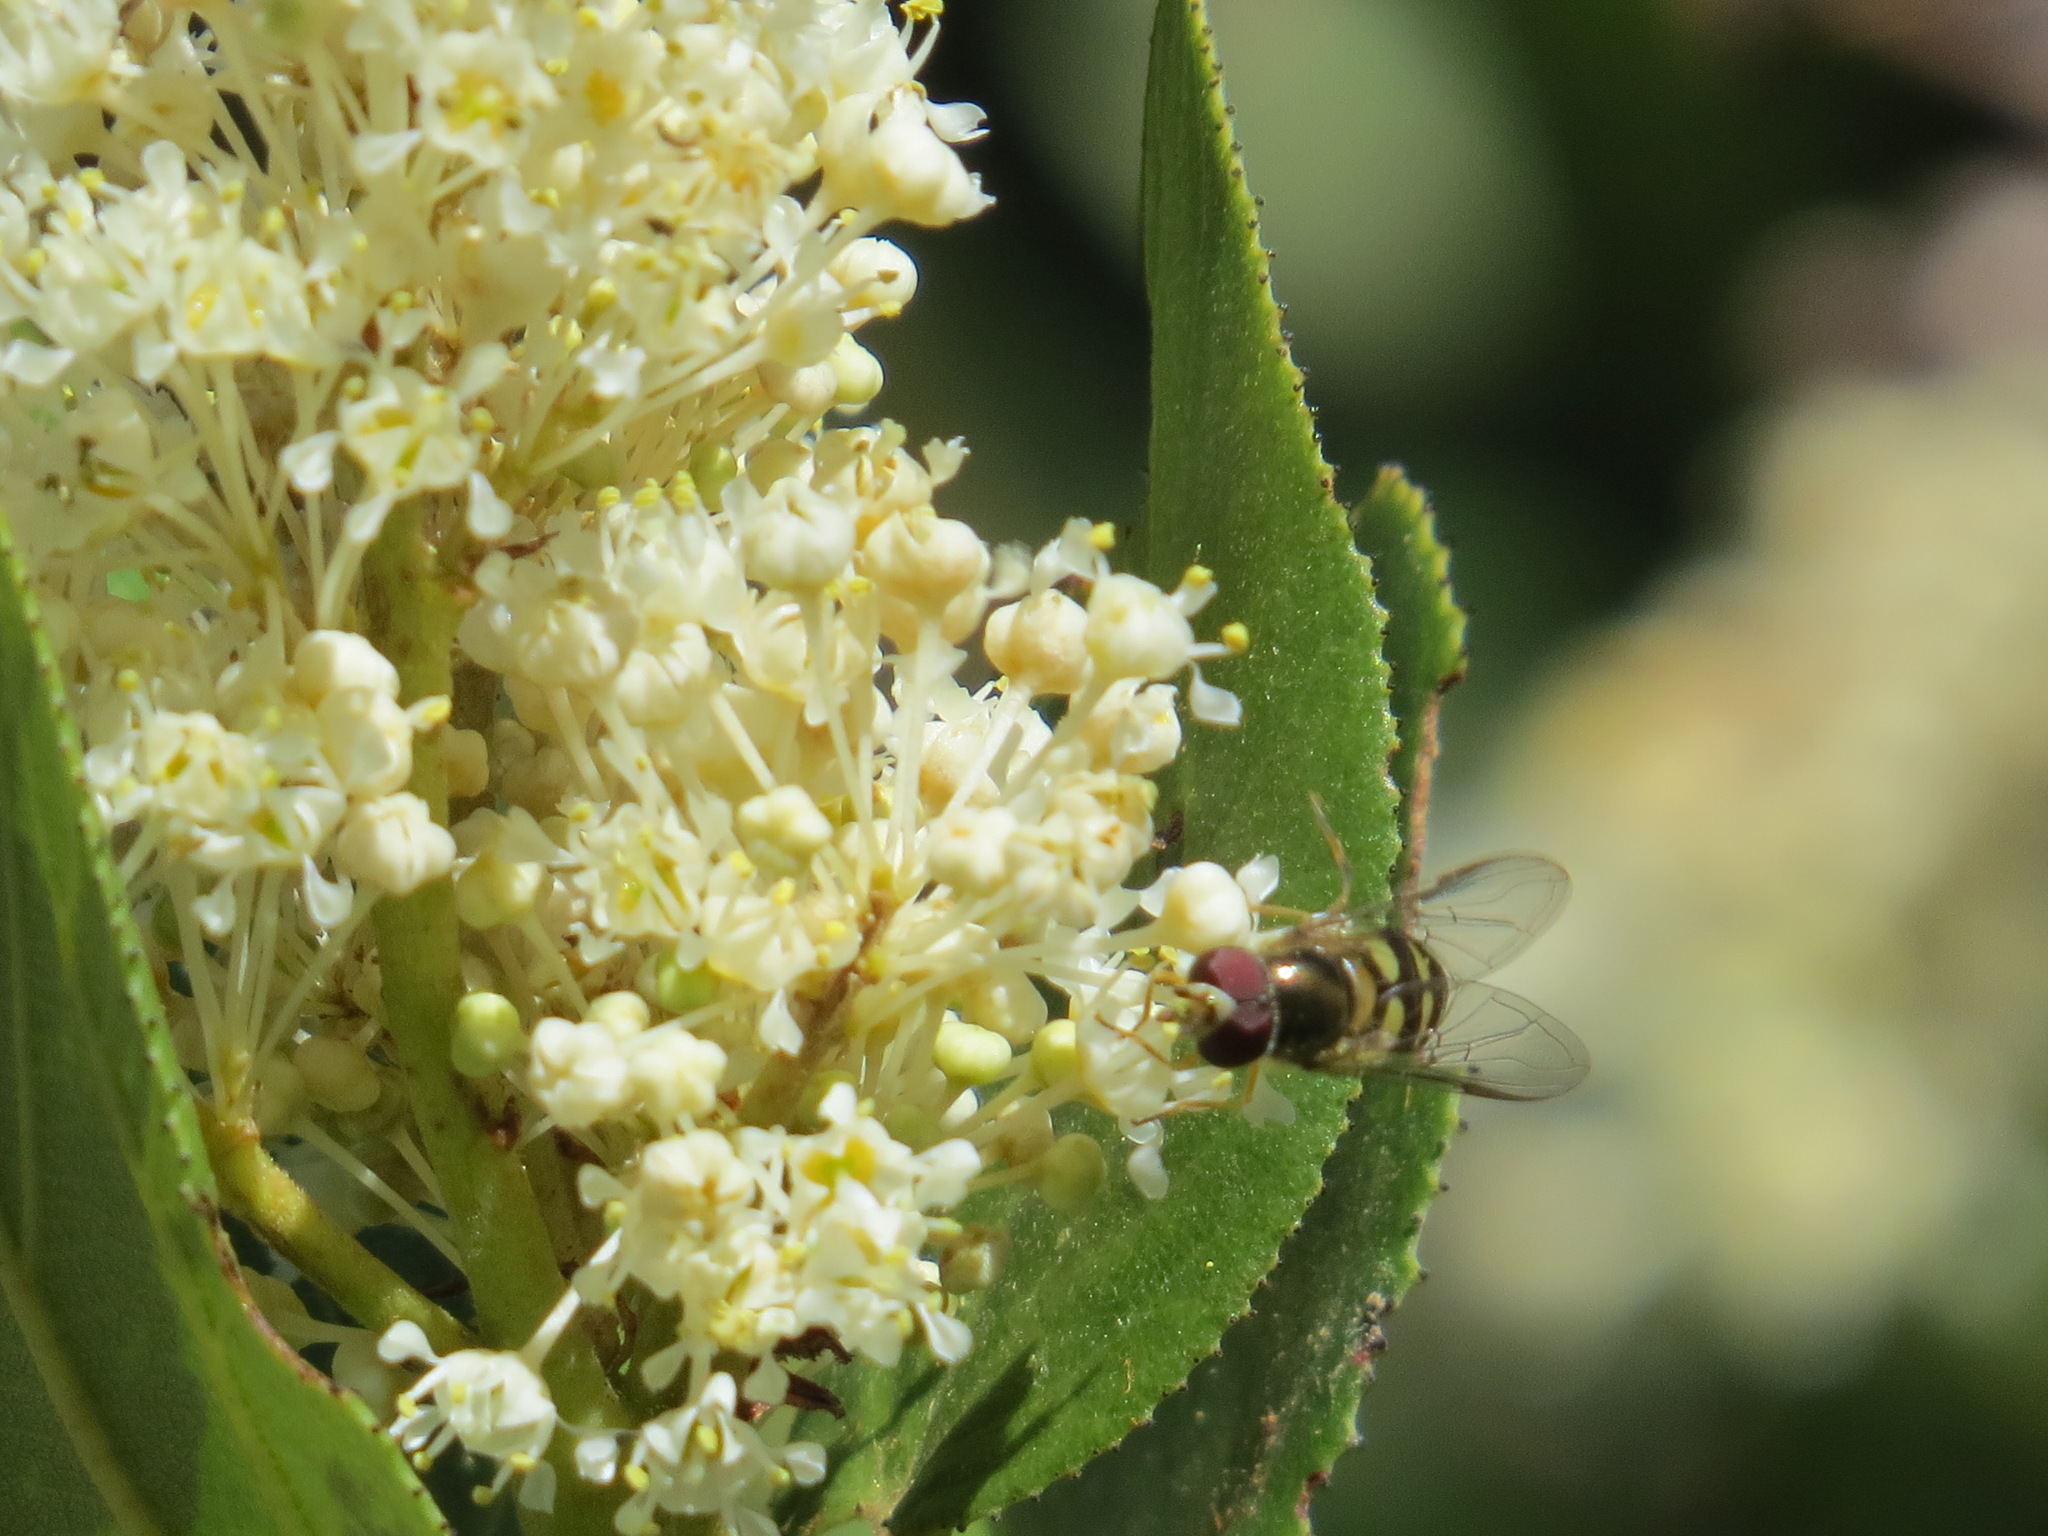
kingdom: Animalia
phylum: Arthropoda
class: Insecta
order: Diptera
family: Syrphidae
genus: Lapposyrphus
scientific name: Lapposyrphus lapponicus
